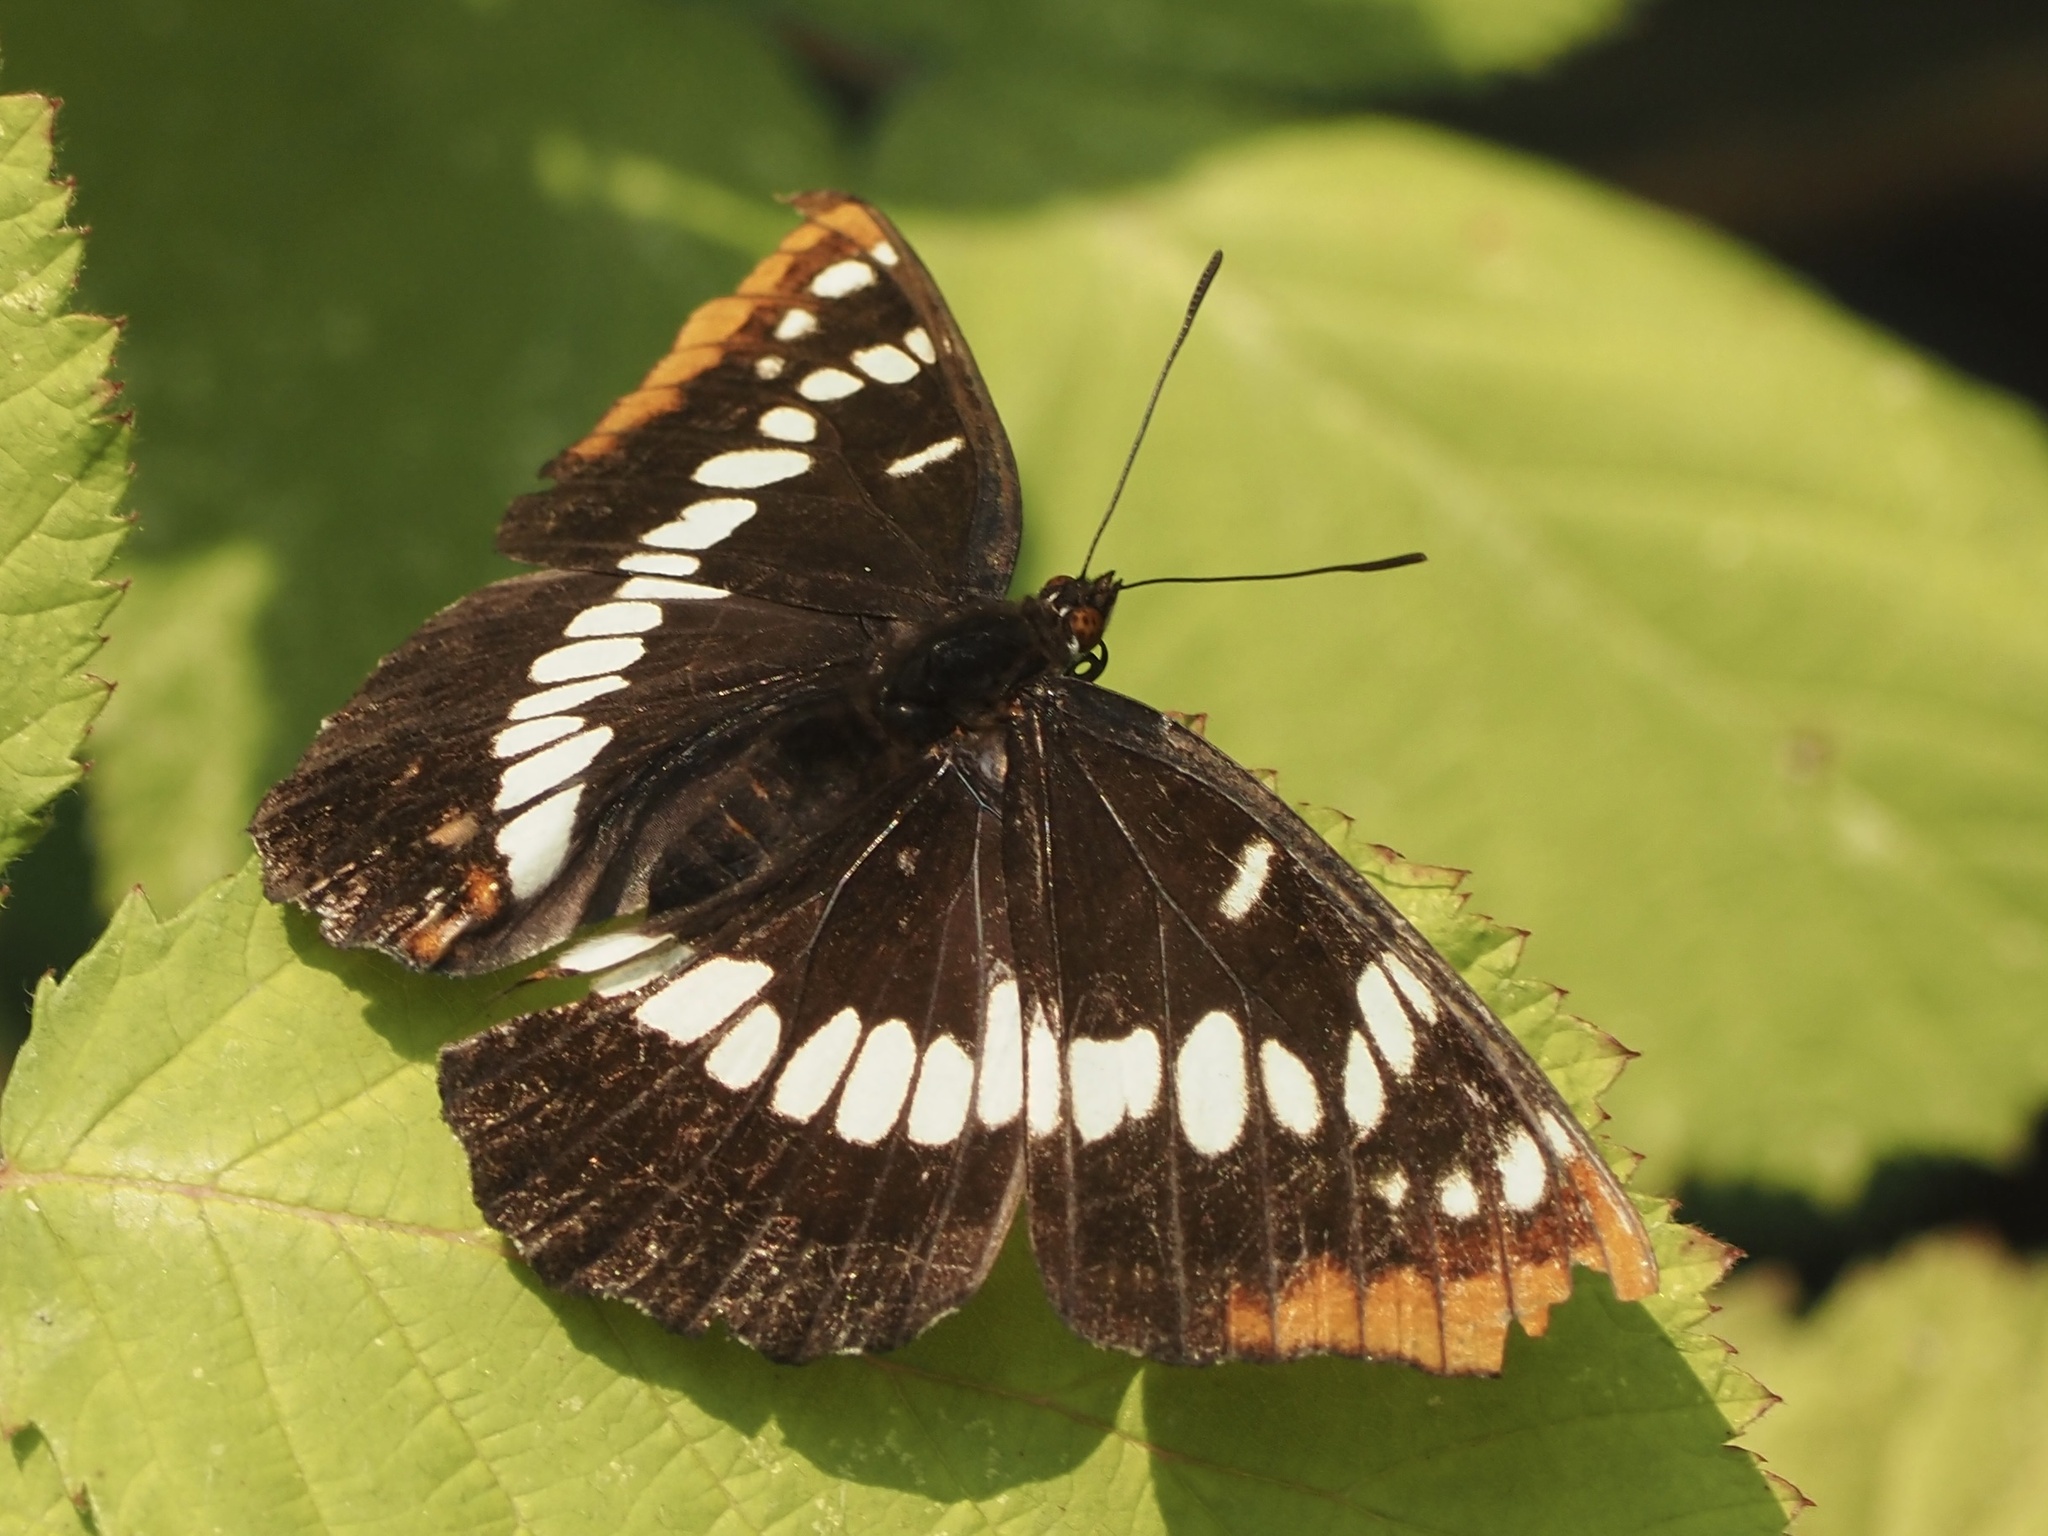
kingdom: Animalia
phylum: Arthropoda
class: Insecta
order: Lepidoptera
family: Nymphalidae
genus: Limenitis
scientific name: Limenitis lorquini
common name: Lorquin's admiral
